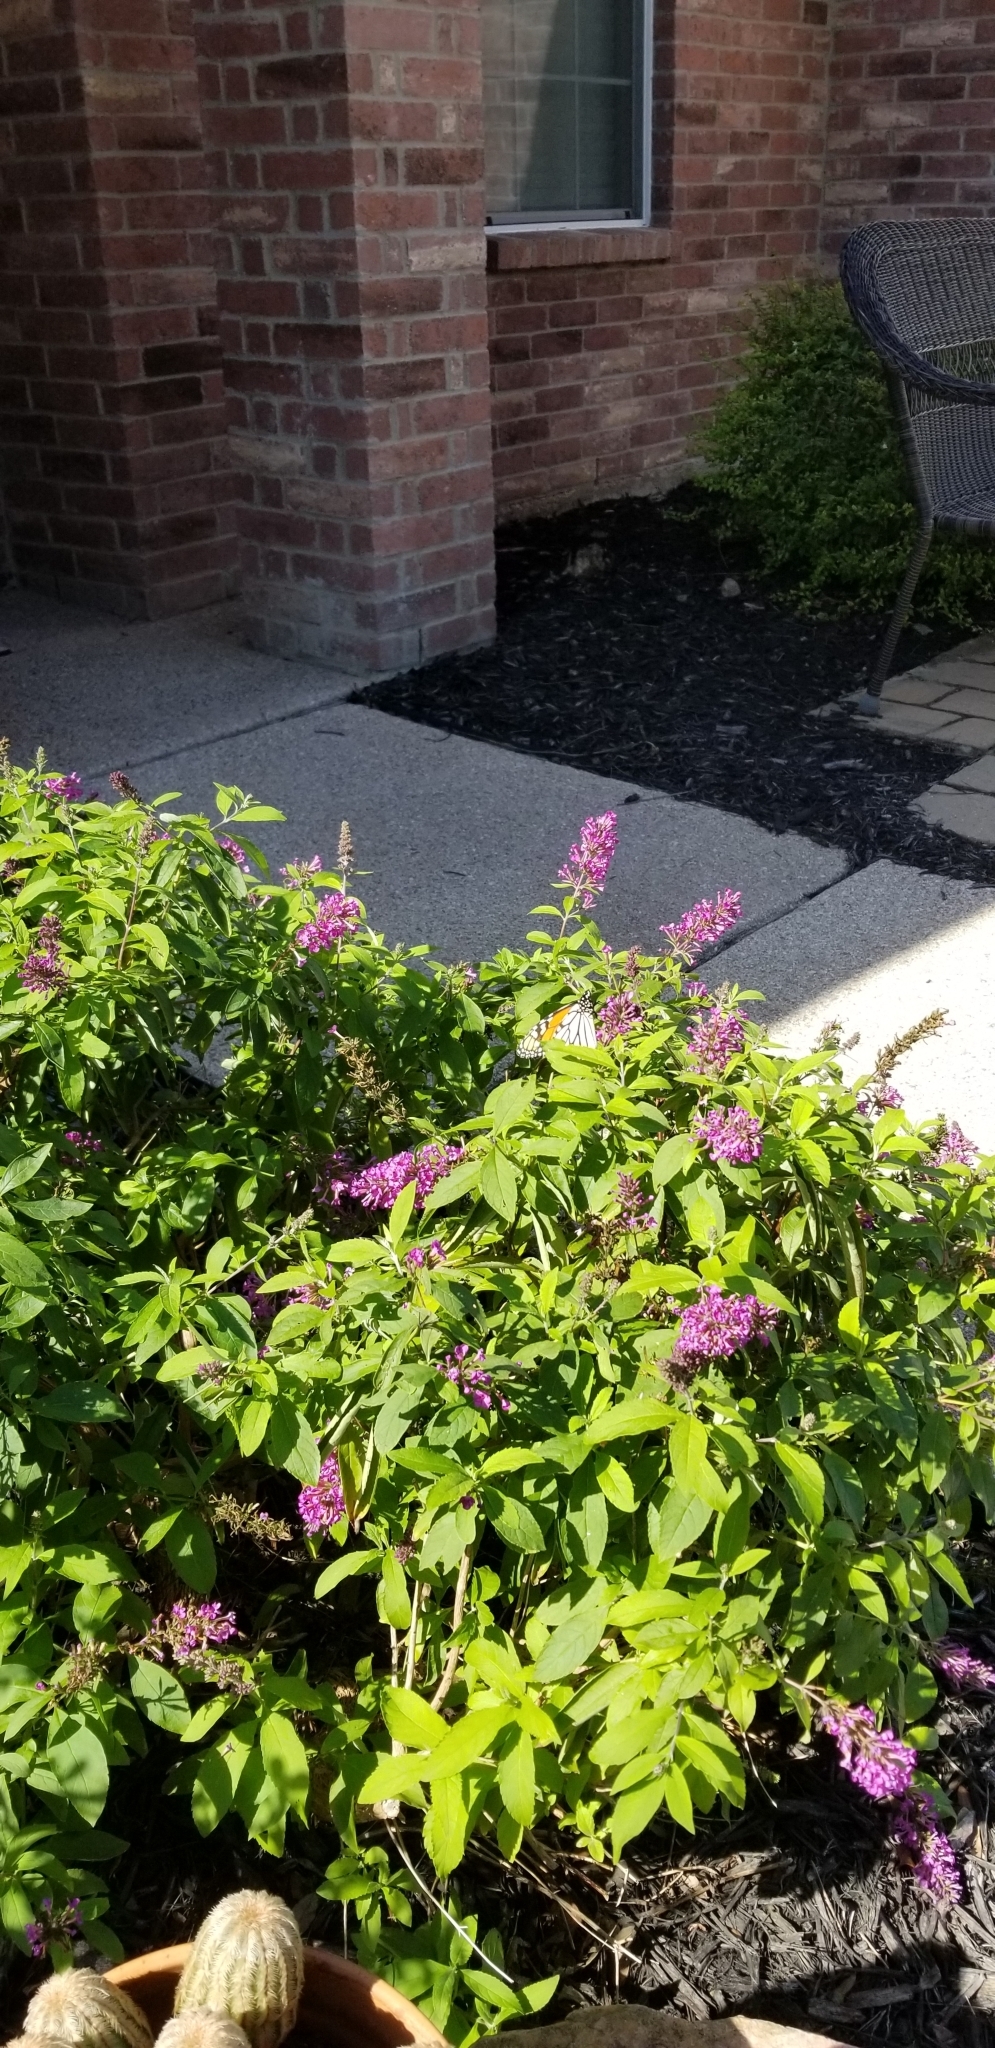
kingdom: Animalia
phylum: Arthropoda
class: Insecta
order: Lepidoptera
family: Nymphalidae
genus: Danaus
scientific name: Danaus plexippus
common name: Monarch
